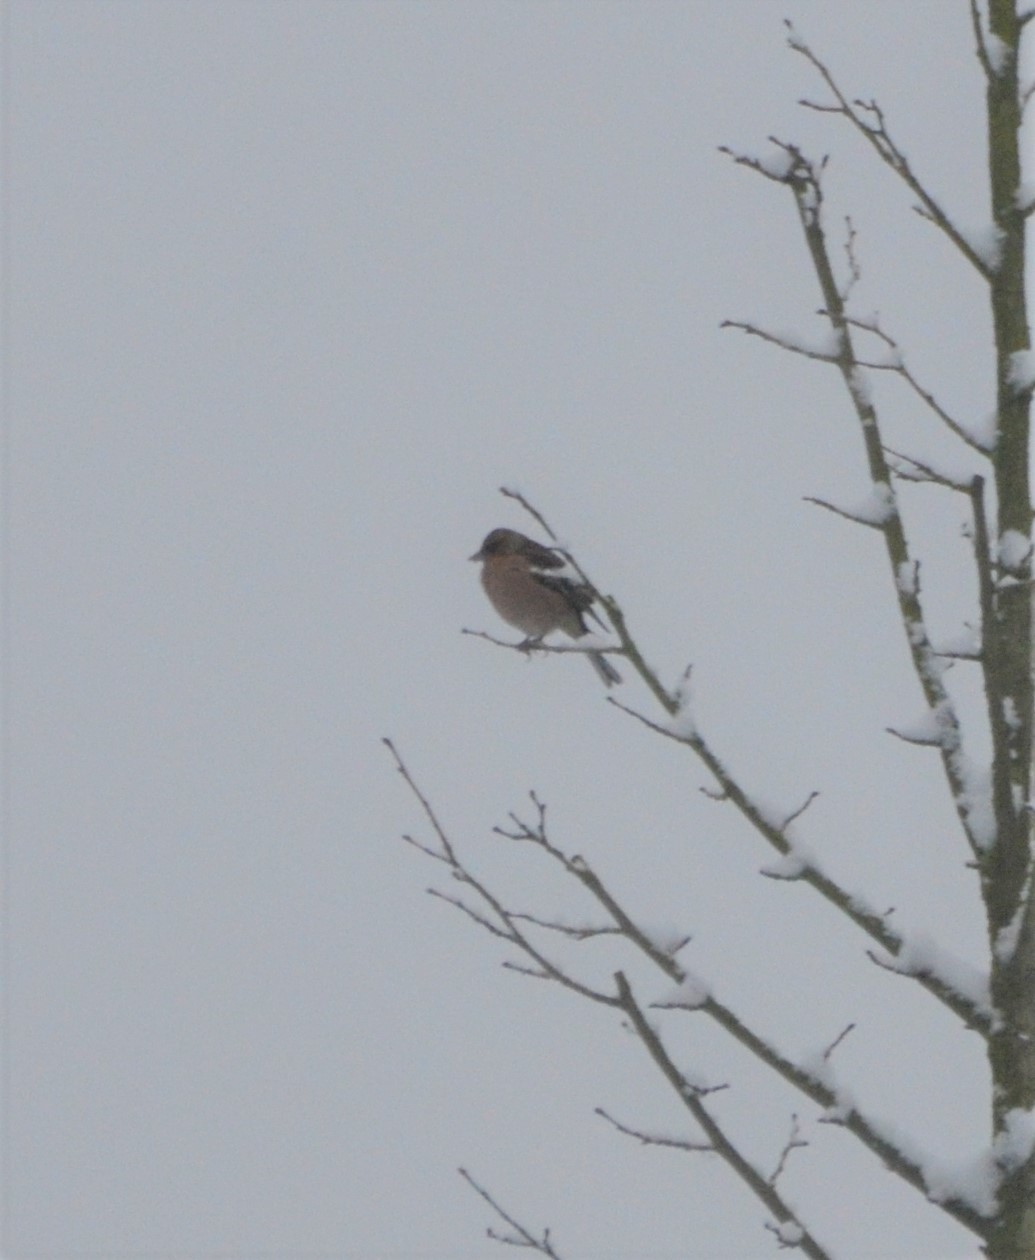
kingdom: Animalia
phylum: Chordata
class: Aves
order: Passeriformes
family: Fringillidae
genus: Fringilla
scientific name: Fringilla coelebs
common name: Common chaffinch
